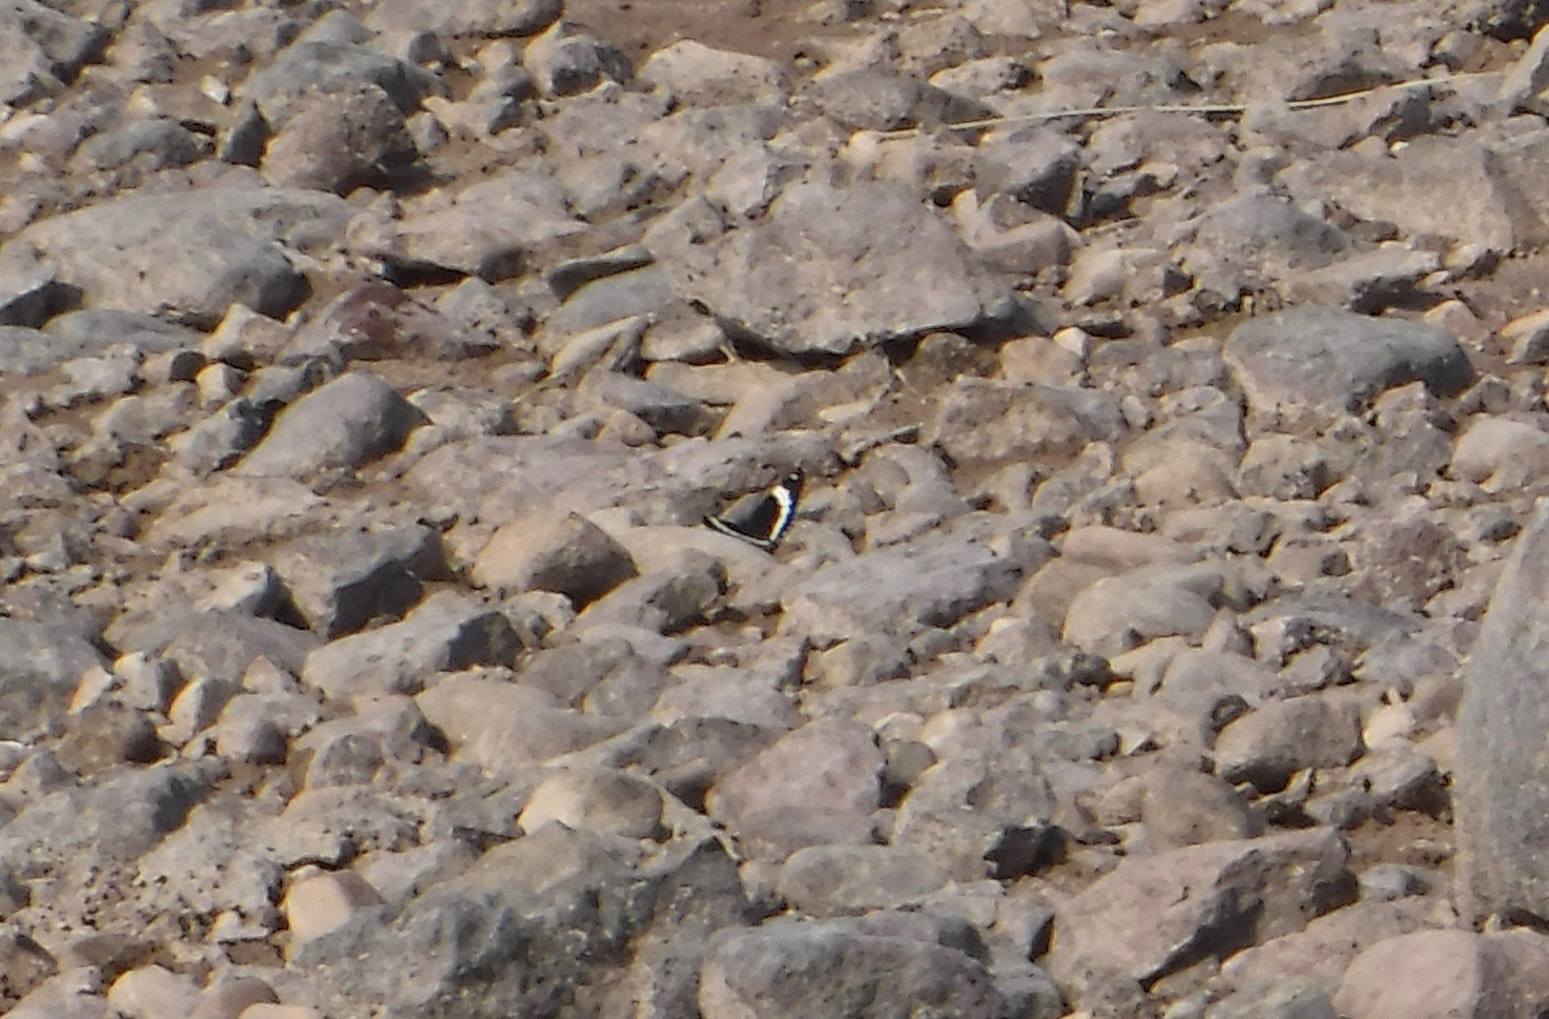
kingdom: Animalia
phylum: Arthropoda
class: Insecta
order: Lepidoptera
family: Nymphalidae
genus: Limenitis
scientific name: Limenitis arthemis
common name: Red-spotted admiral
